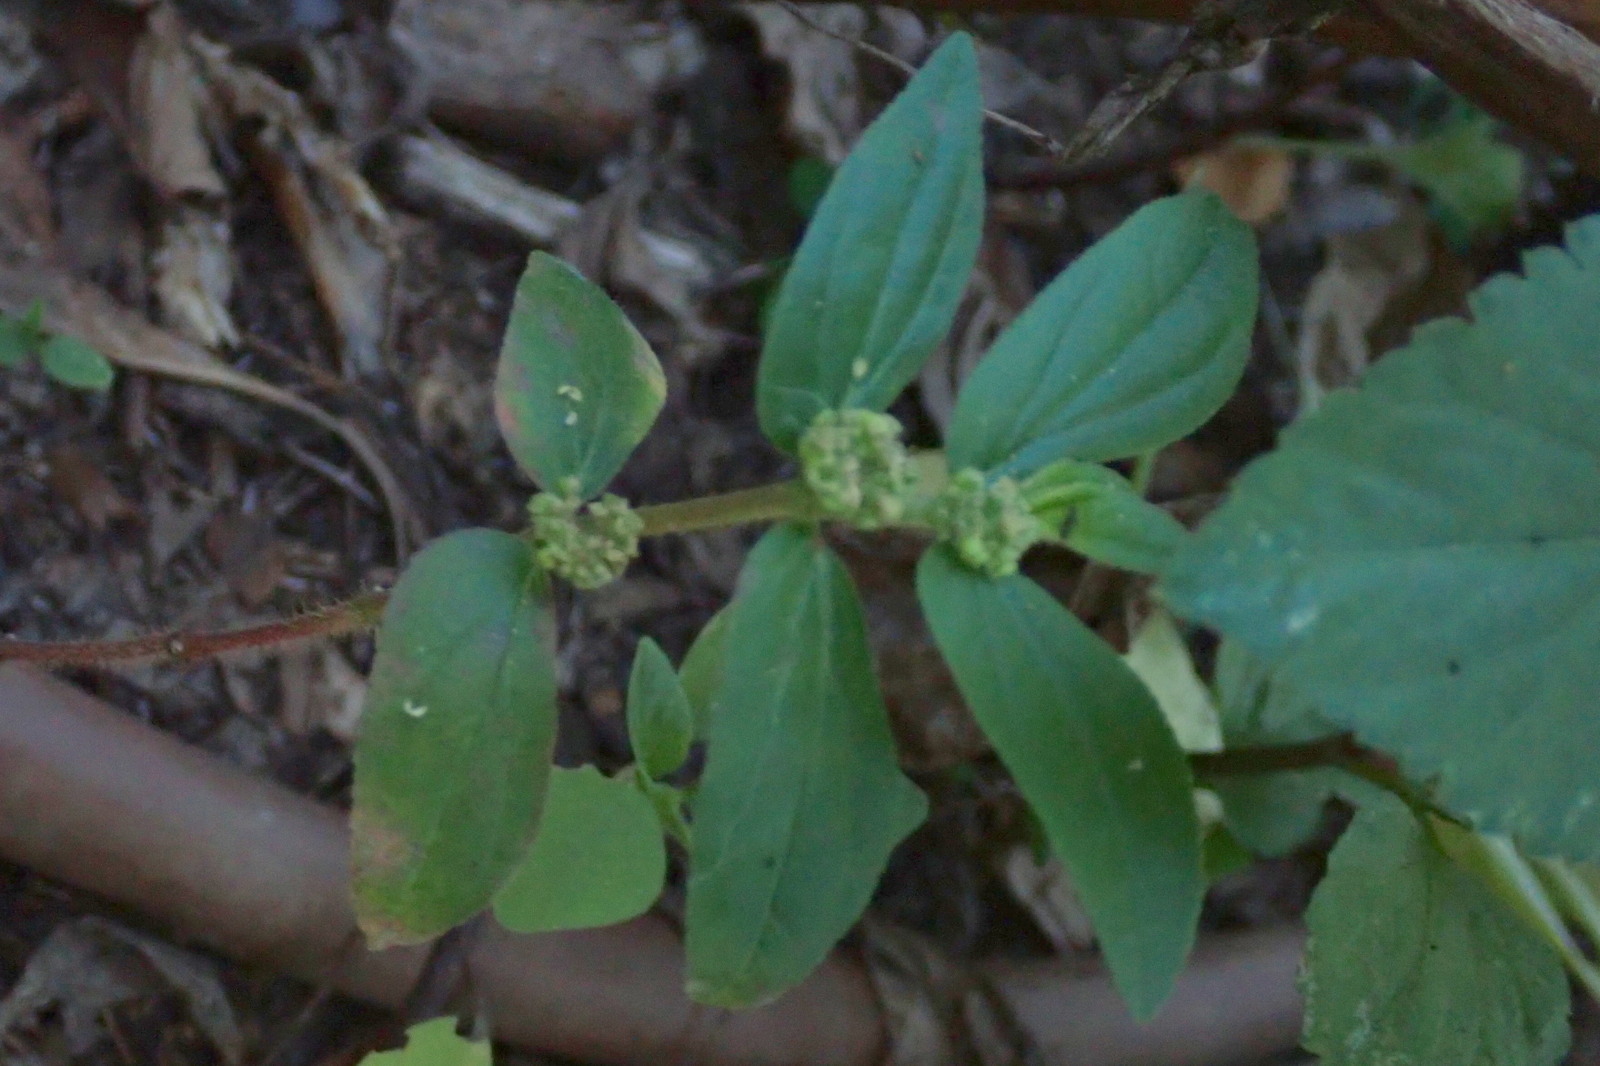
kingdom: Plantae
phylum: Tracheophyta
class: Magnoliopsida
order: Malpighiales
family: Euphorbiaceae
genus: Euphorbia
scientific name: Euphorbia hirta
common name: Pillpod sandmat
